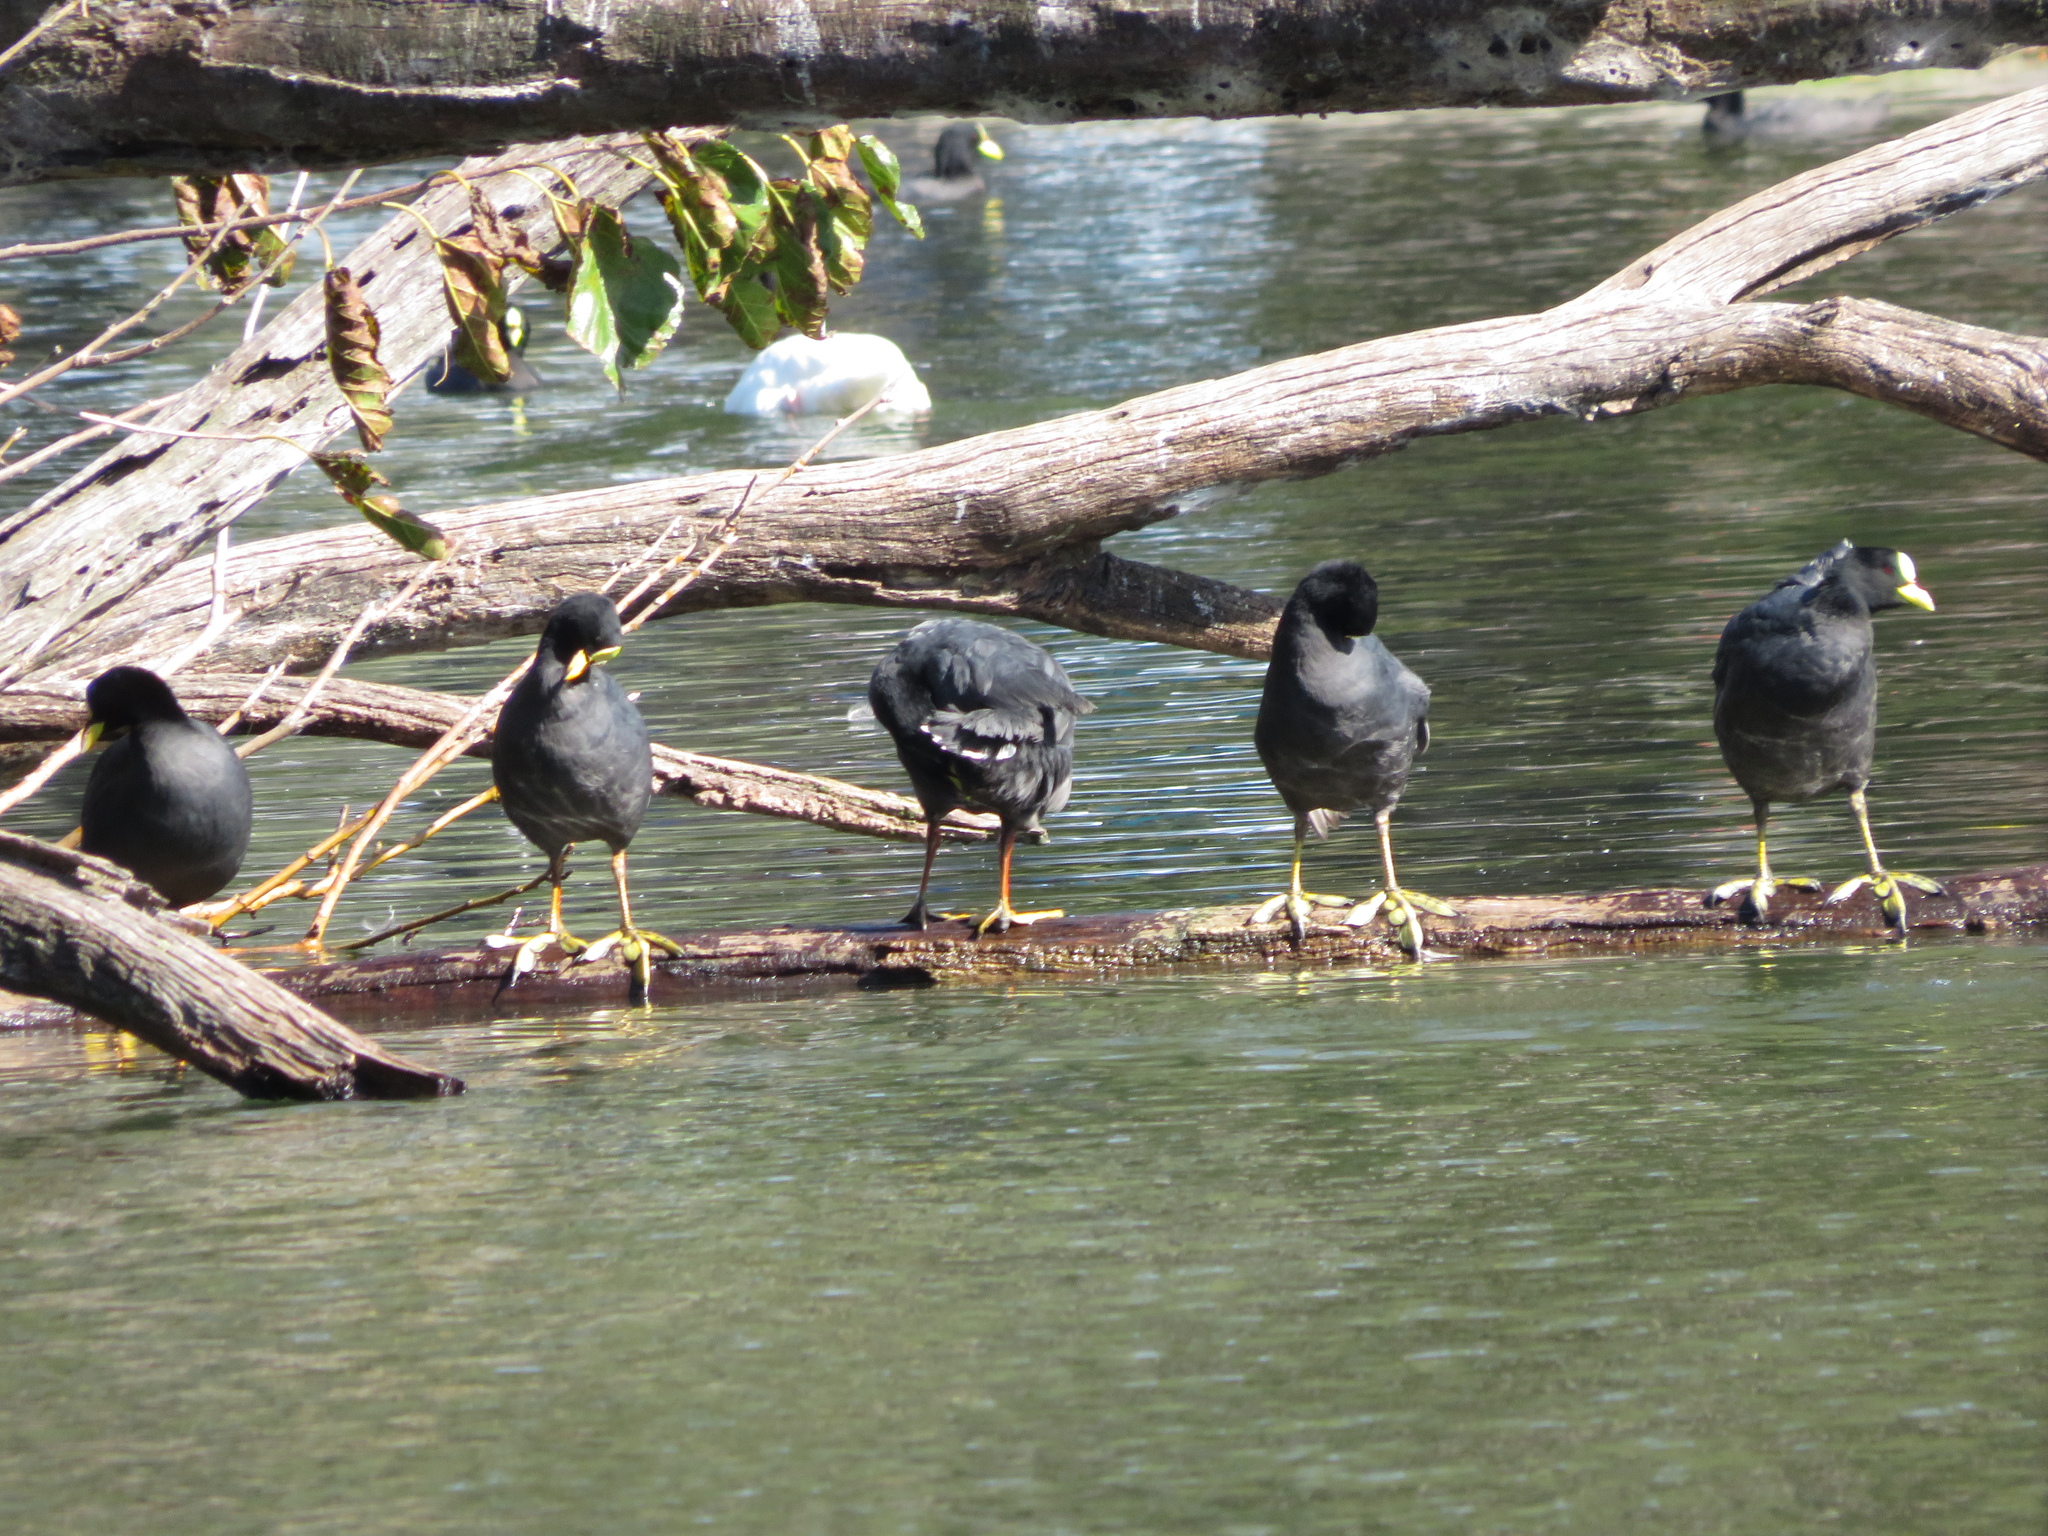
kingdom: Animalia
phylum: Chordata
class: Aves
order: Gruiformes
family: Rallidae
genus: Fulica
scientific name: Fulica armillata
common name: Red-gartered coot
